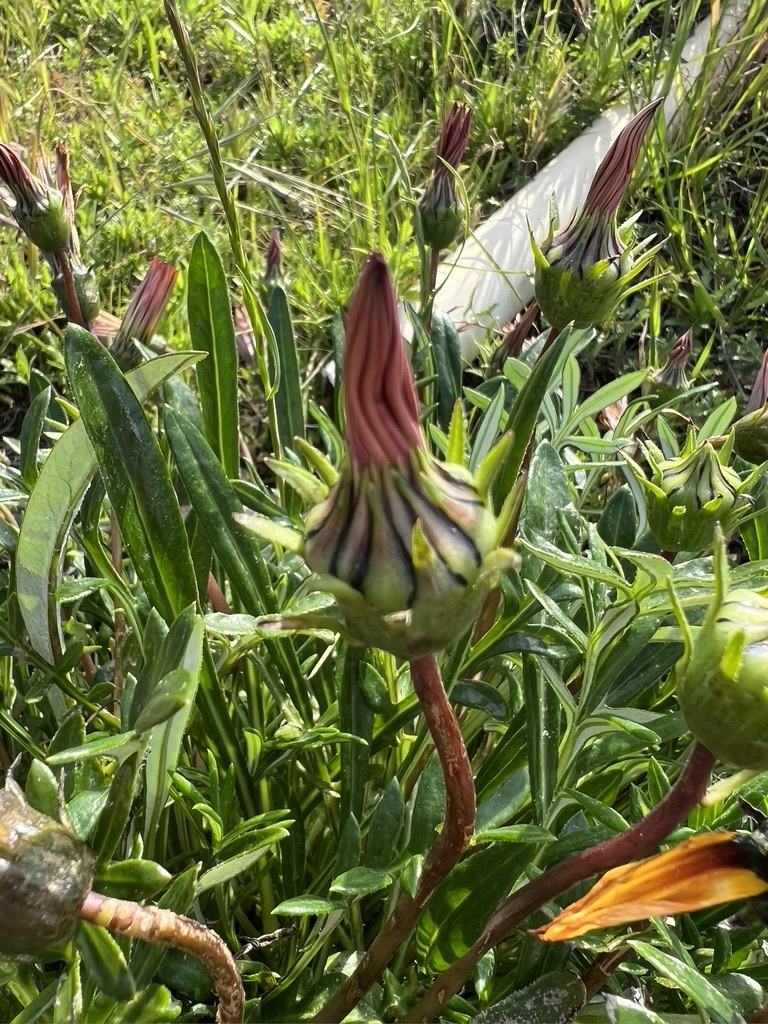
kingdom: Plantae
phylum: Tracheophyta
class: Magnoliopsida
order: Asterales
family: Asteraceae
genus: Gazania
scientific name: Gazania linearis
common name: Treasureflower
